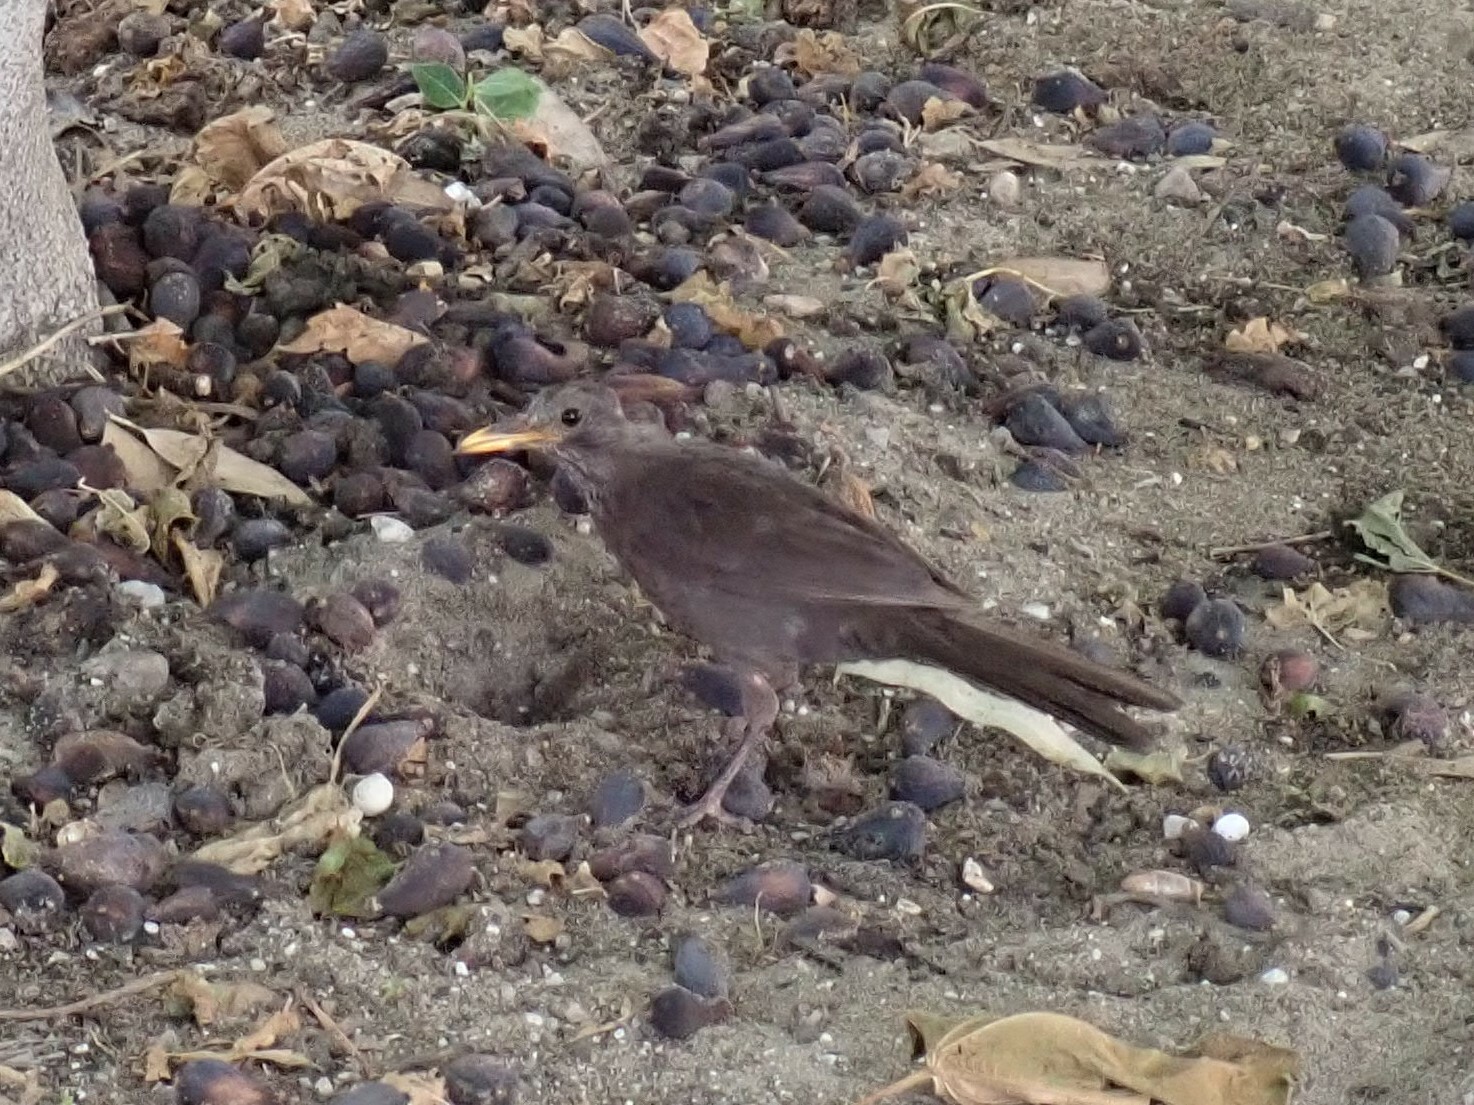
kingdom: Animalia
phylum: Chordata
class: Aves
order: Passeriformes
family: Turdidae
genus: Turdus
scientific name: Turdus merula
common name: Common blackbird
